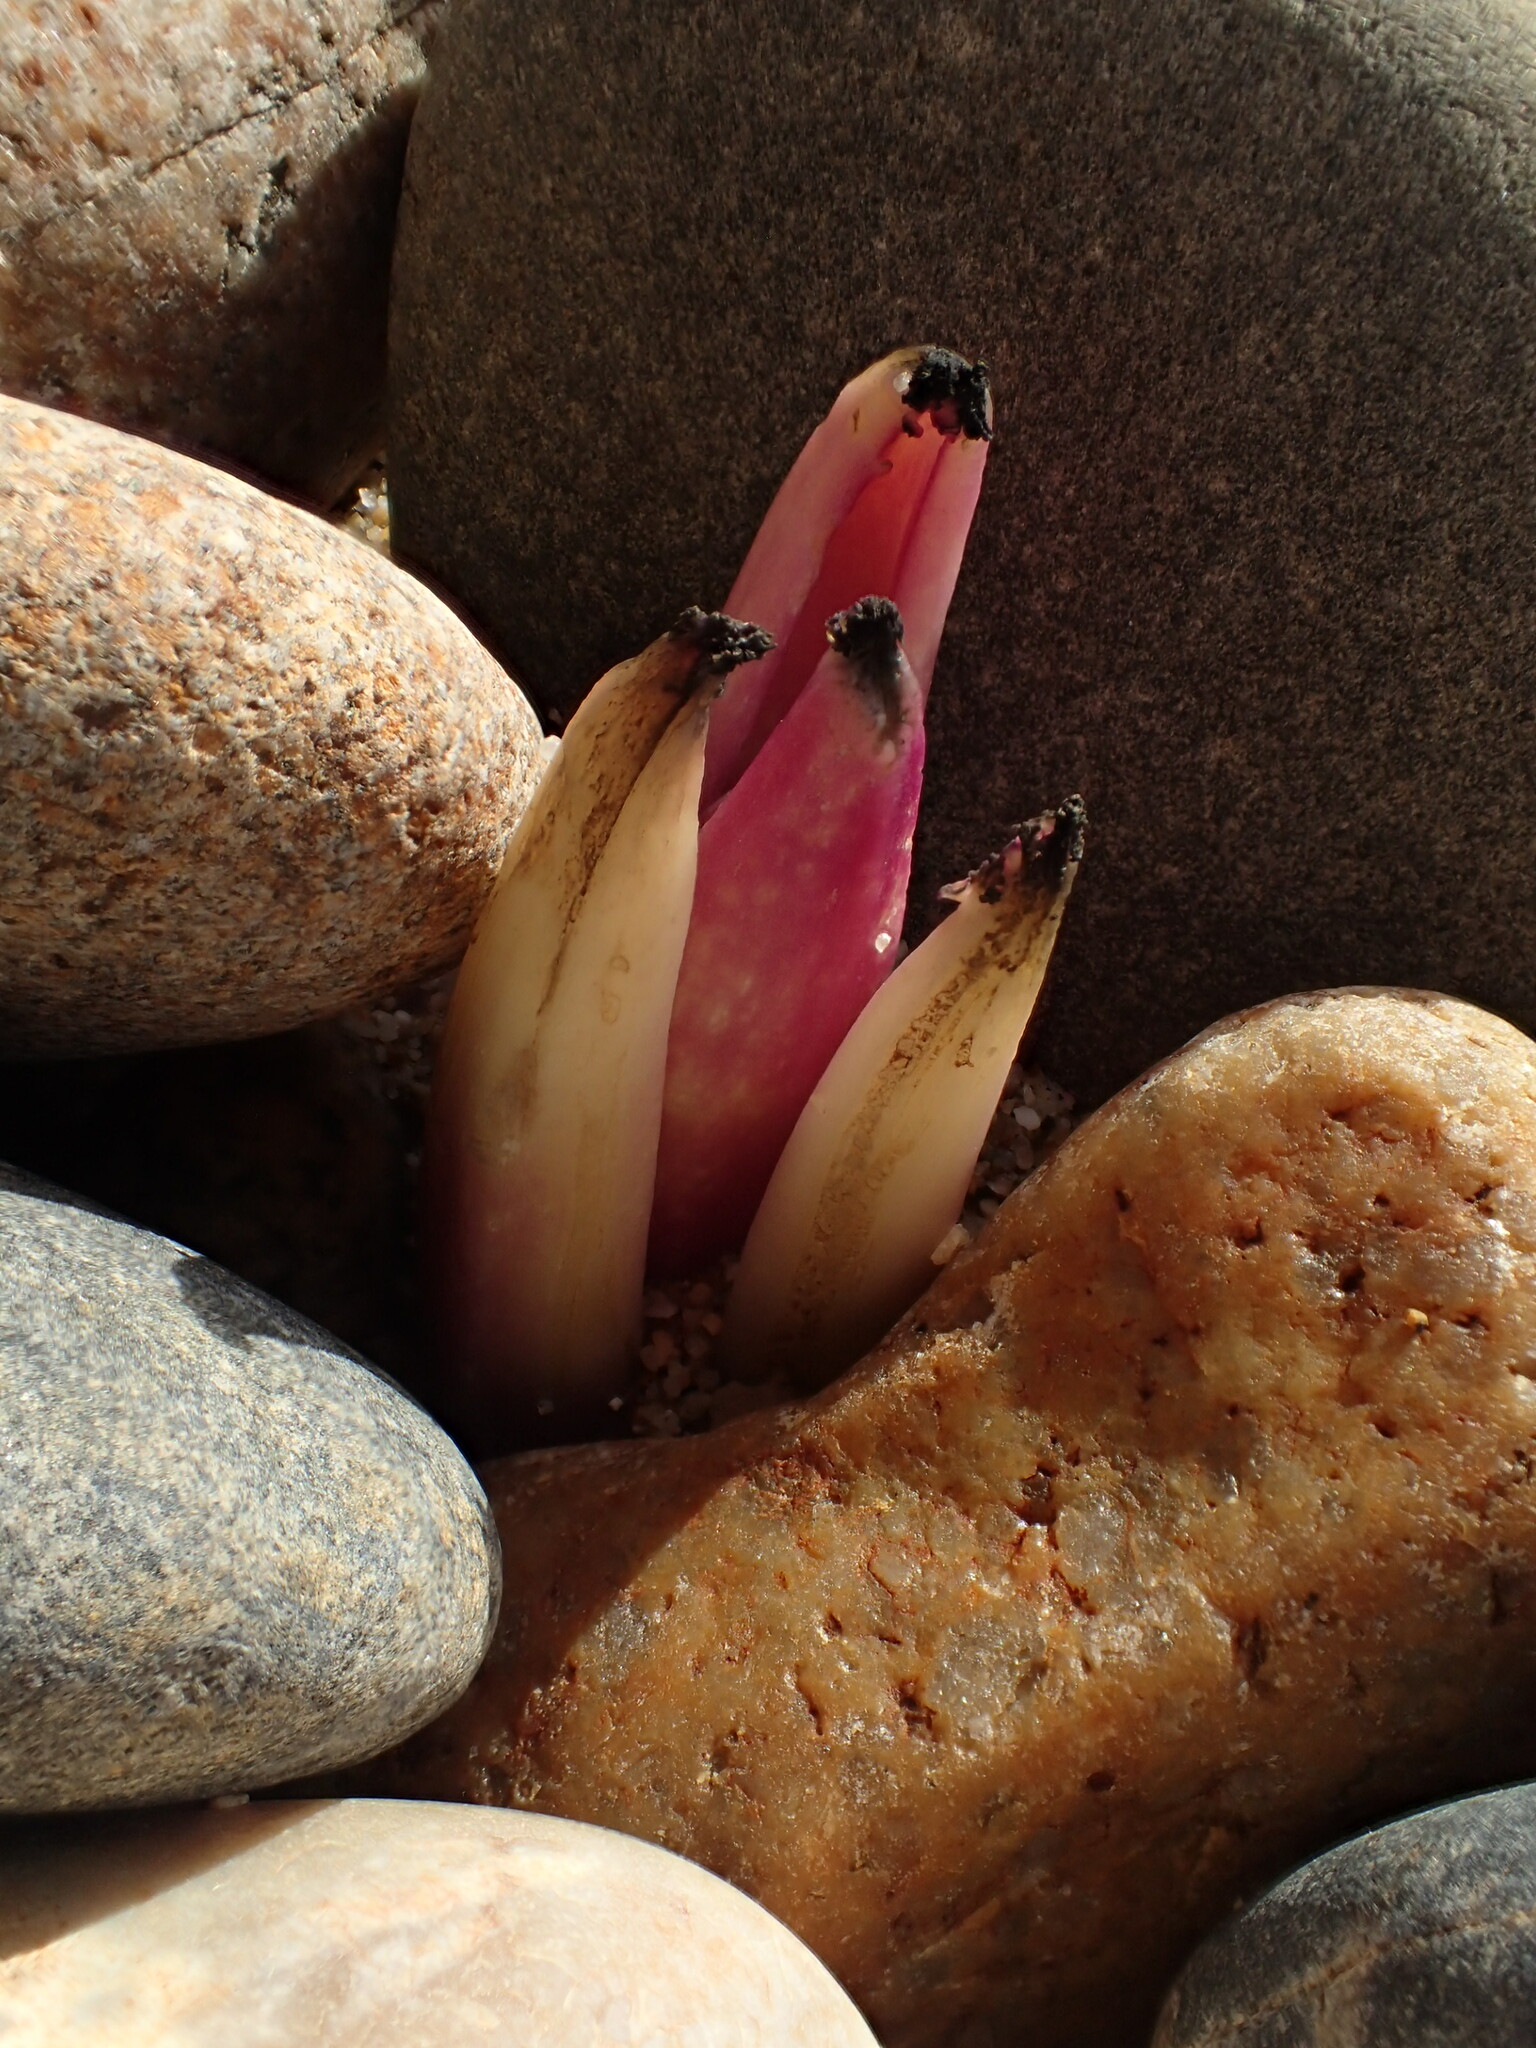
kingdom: Plantae
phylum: Tracheophyta
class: Magnoliopsida
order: Brassicales
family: Brassicaceae
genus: Crambe
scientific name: Crambe maritima
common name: Sea-kale
